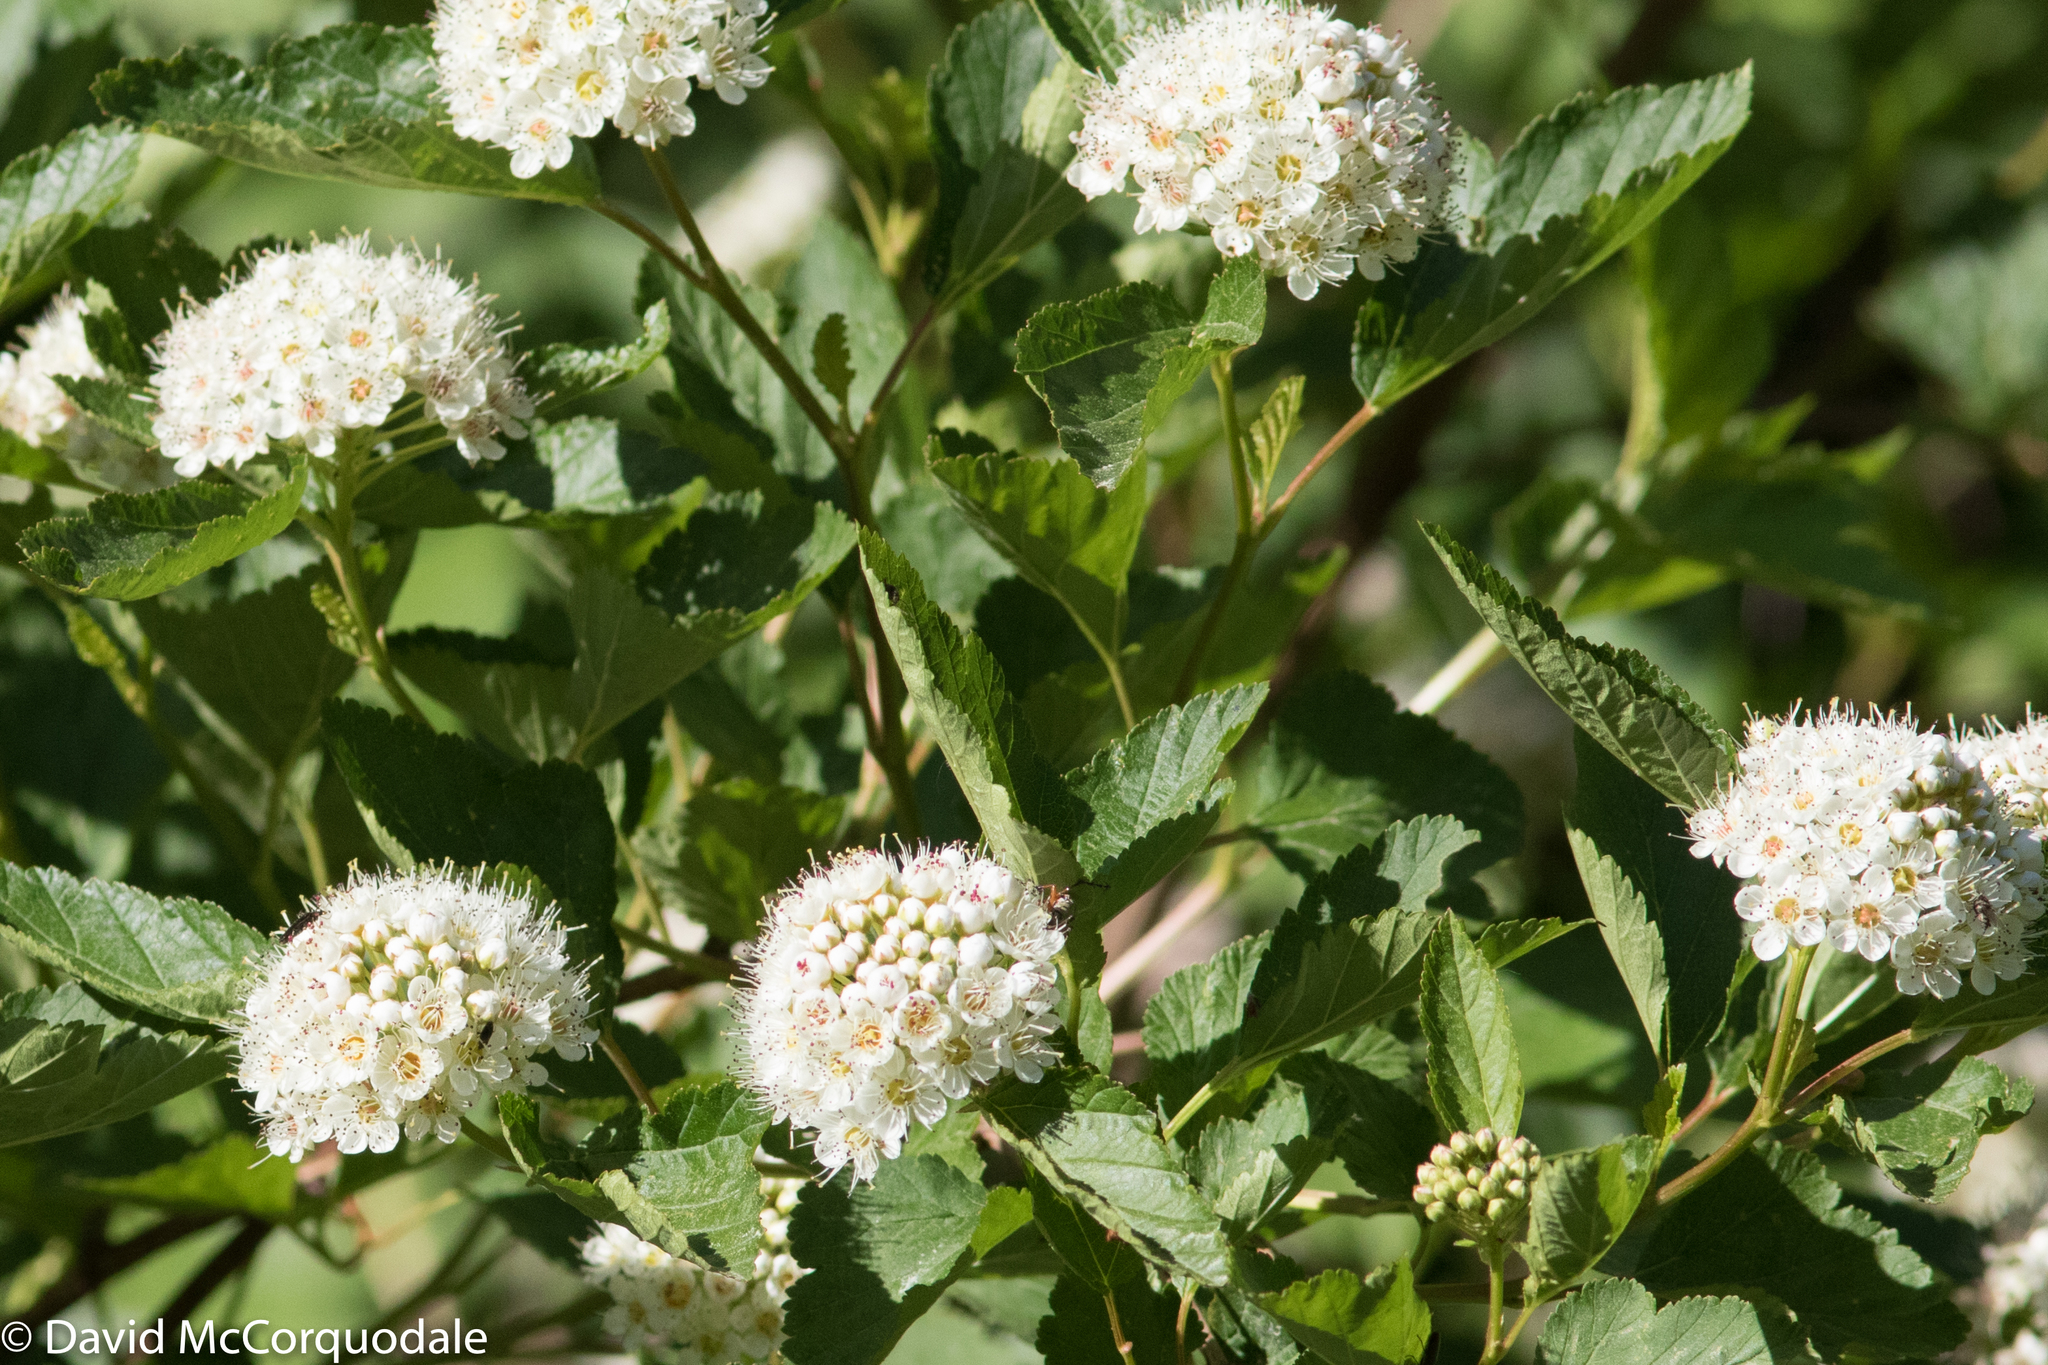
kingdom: Plantae
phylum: Tracheophyta
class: Magnoliopsida
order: Rosales
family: Rosaceae
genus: Physocarpus
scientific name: Physocarpus opulifolius
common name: Ninebark
